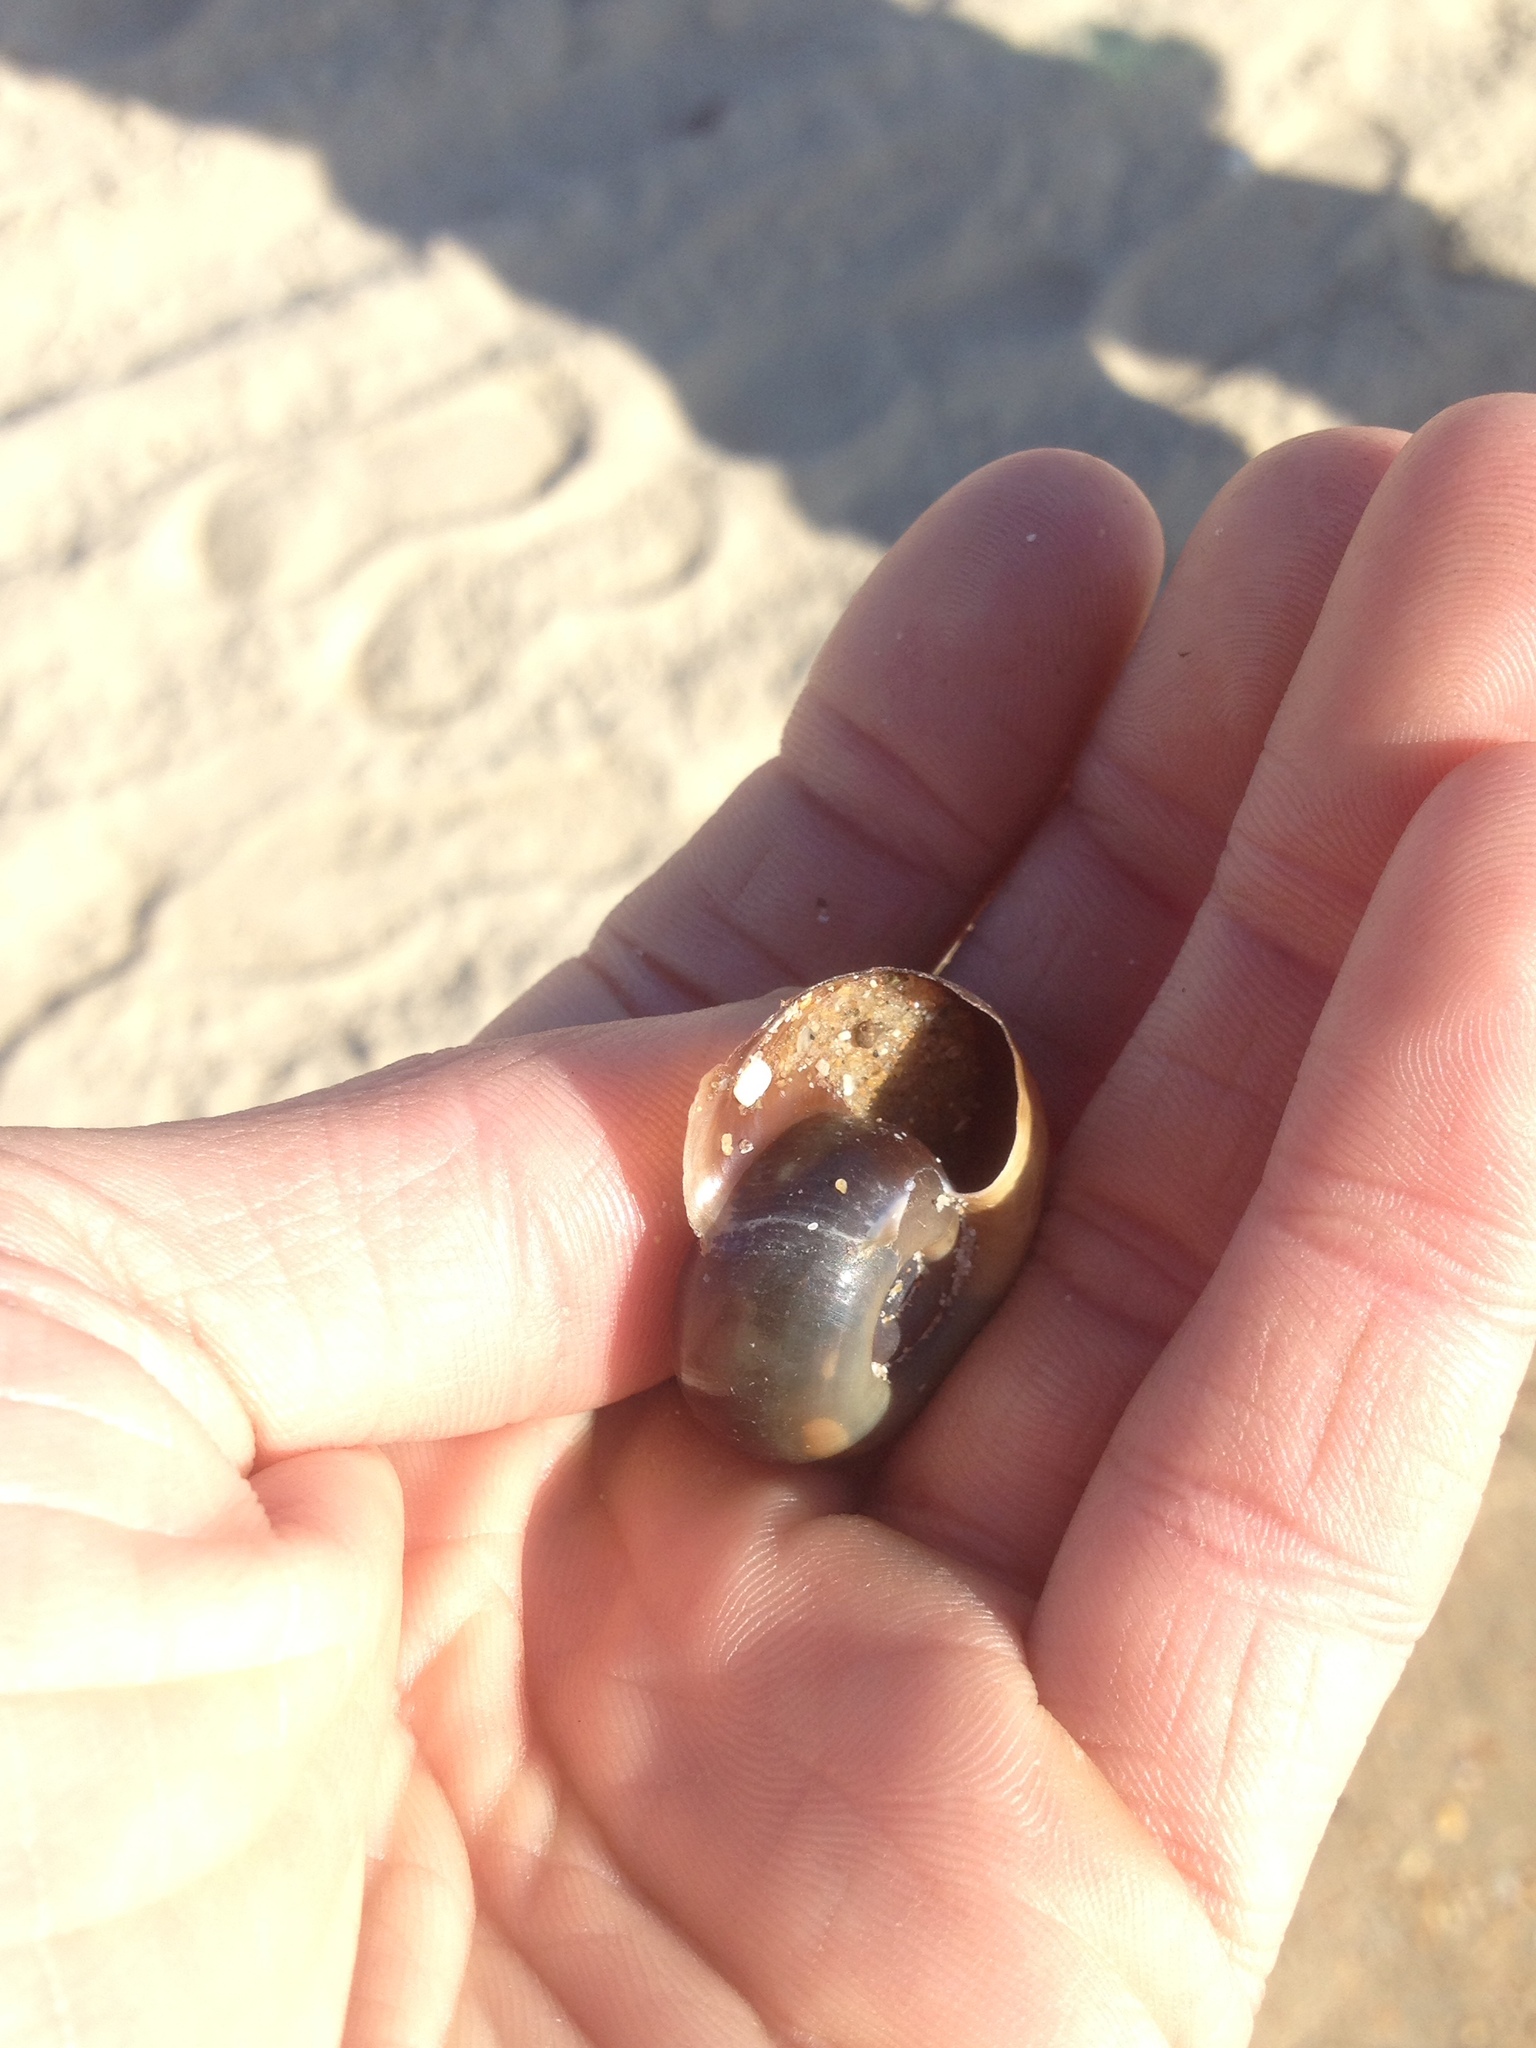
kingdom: Animalia
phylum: Mollusca
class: Gastropoda
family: Planorbidae
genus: Planorbarius
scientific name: Planorbarius corneus
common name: Great ramshorn
